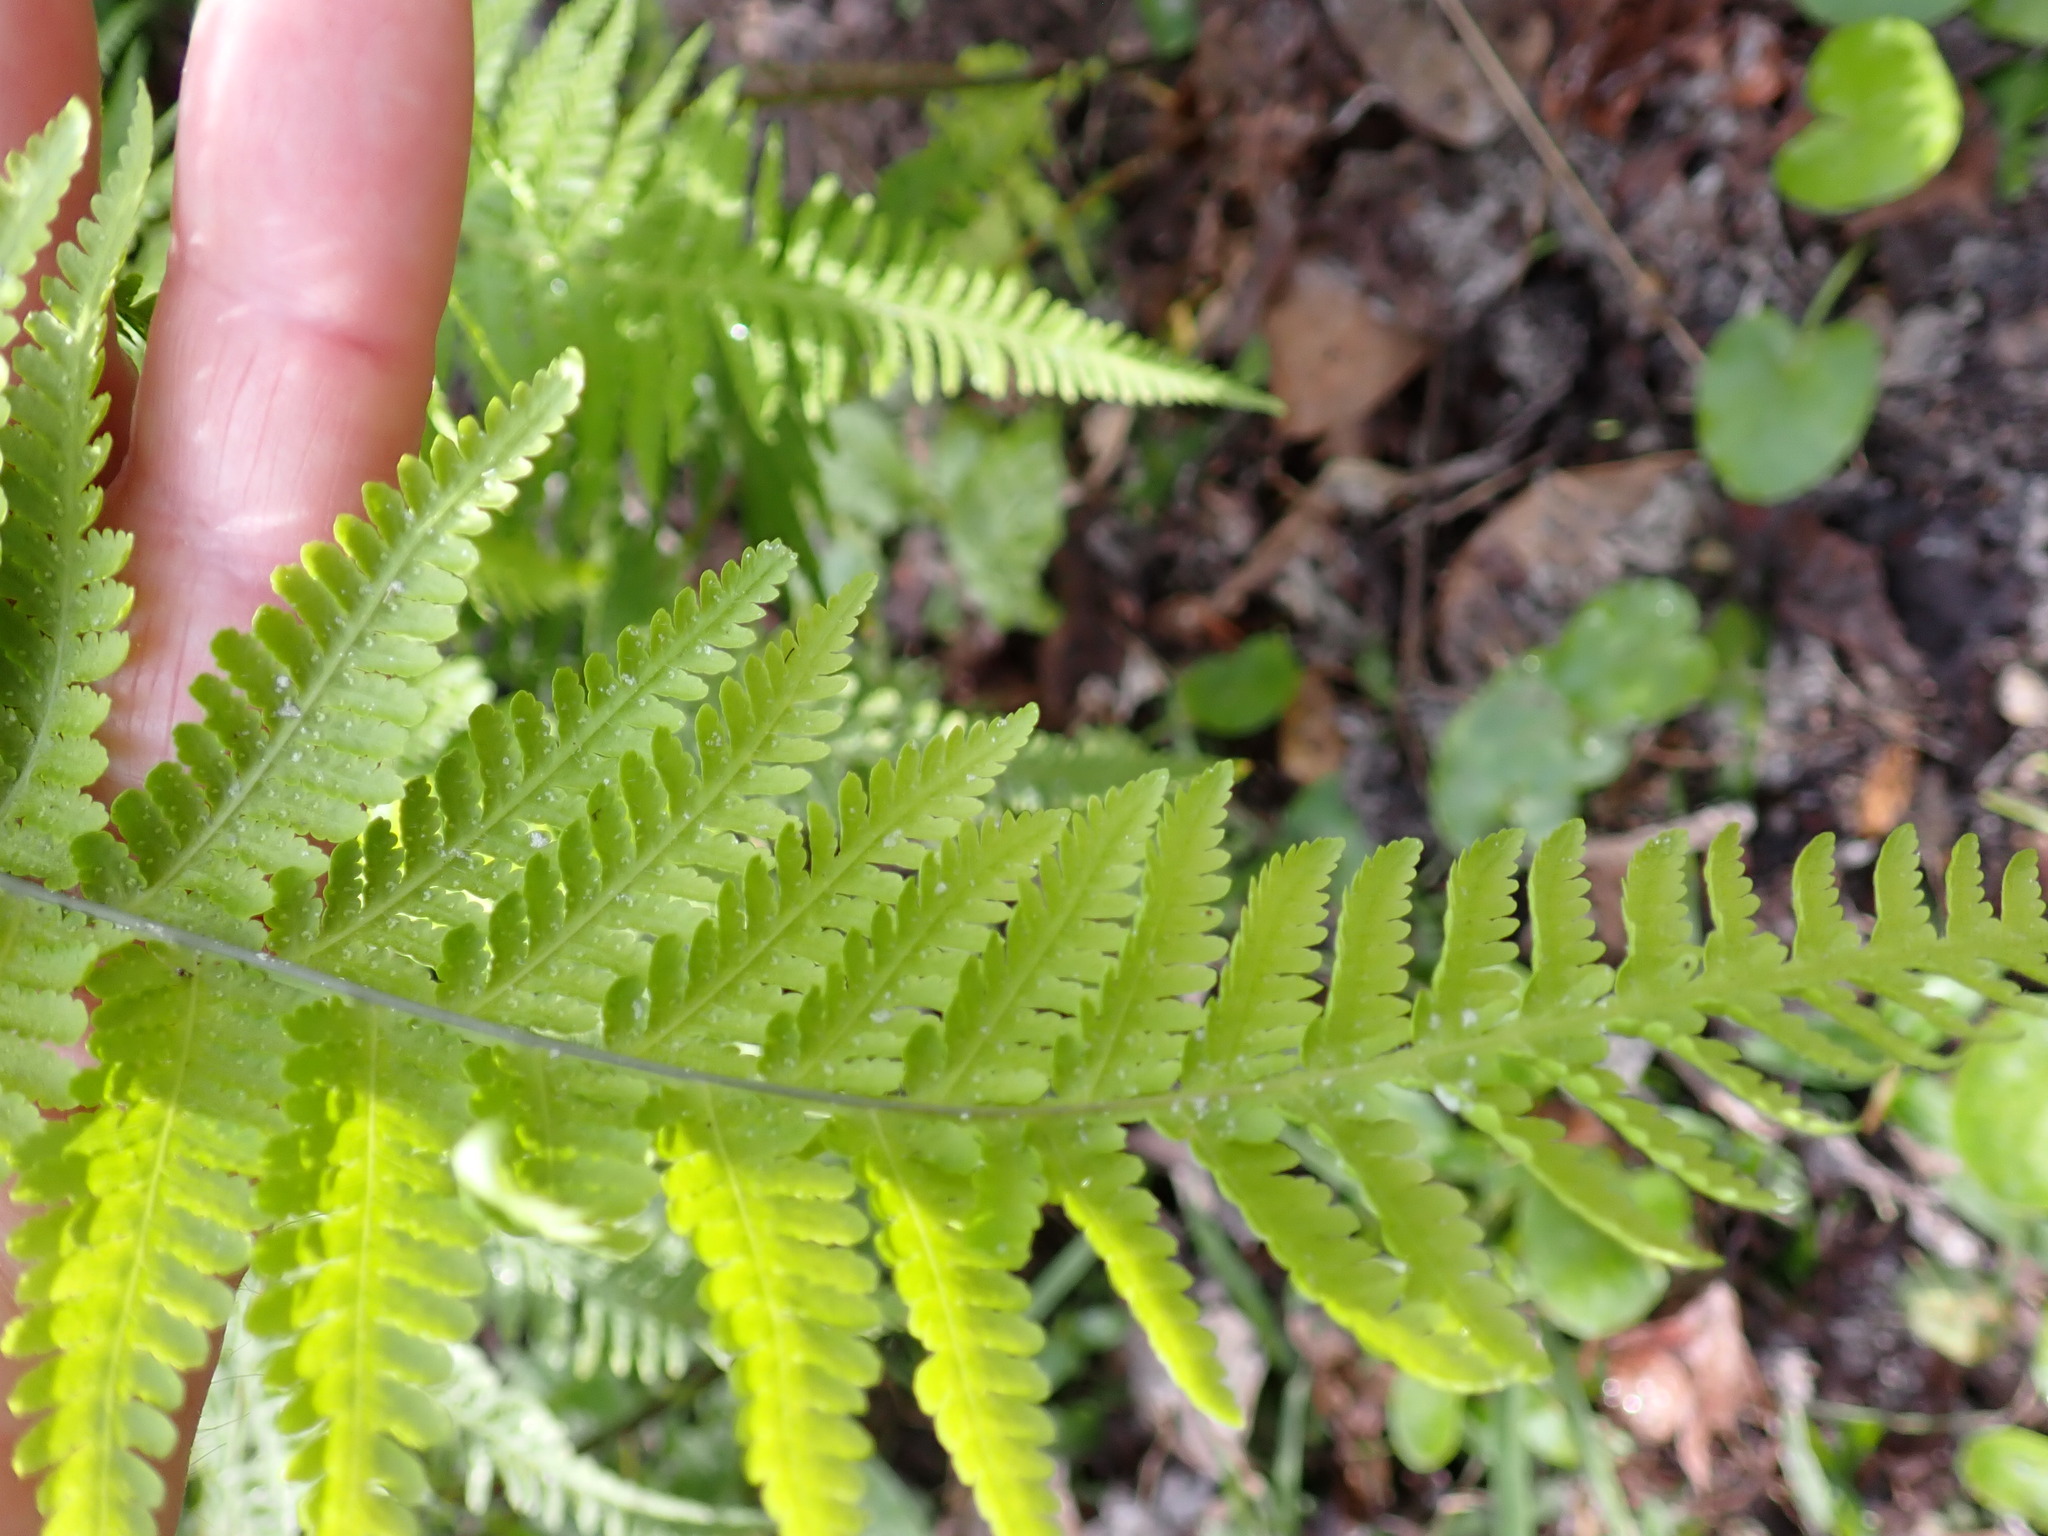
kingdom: Plantae
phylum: Tracheophyta
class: Polypodiopsida
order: Polypodiales
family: Thelypteridaceae
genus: Macrothelypteris
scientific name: Macrothelypteris torresiana
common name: Swordfern
